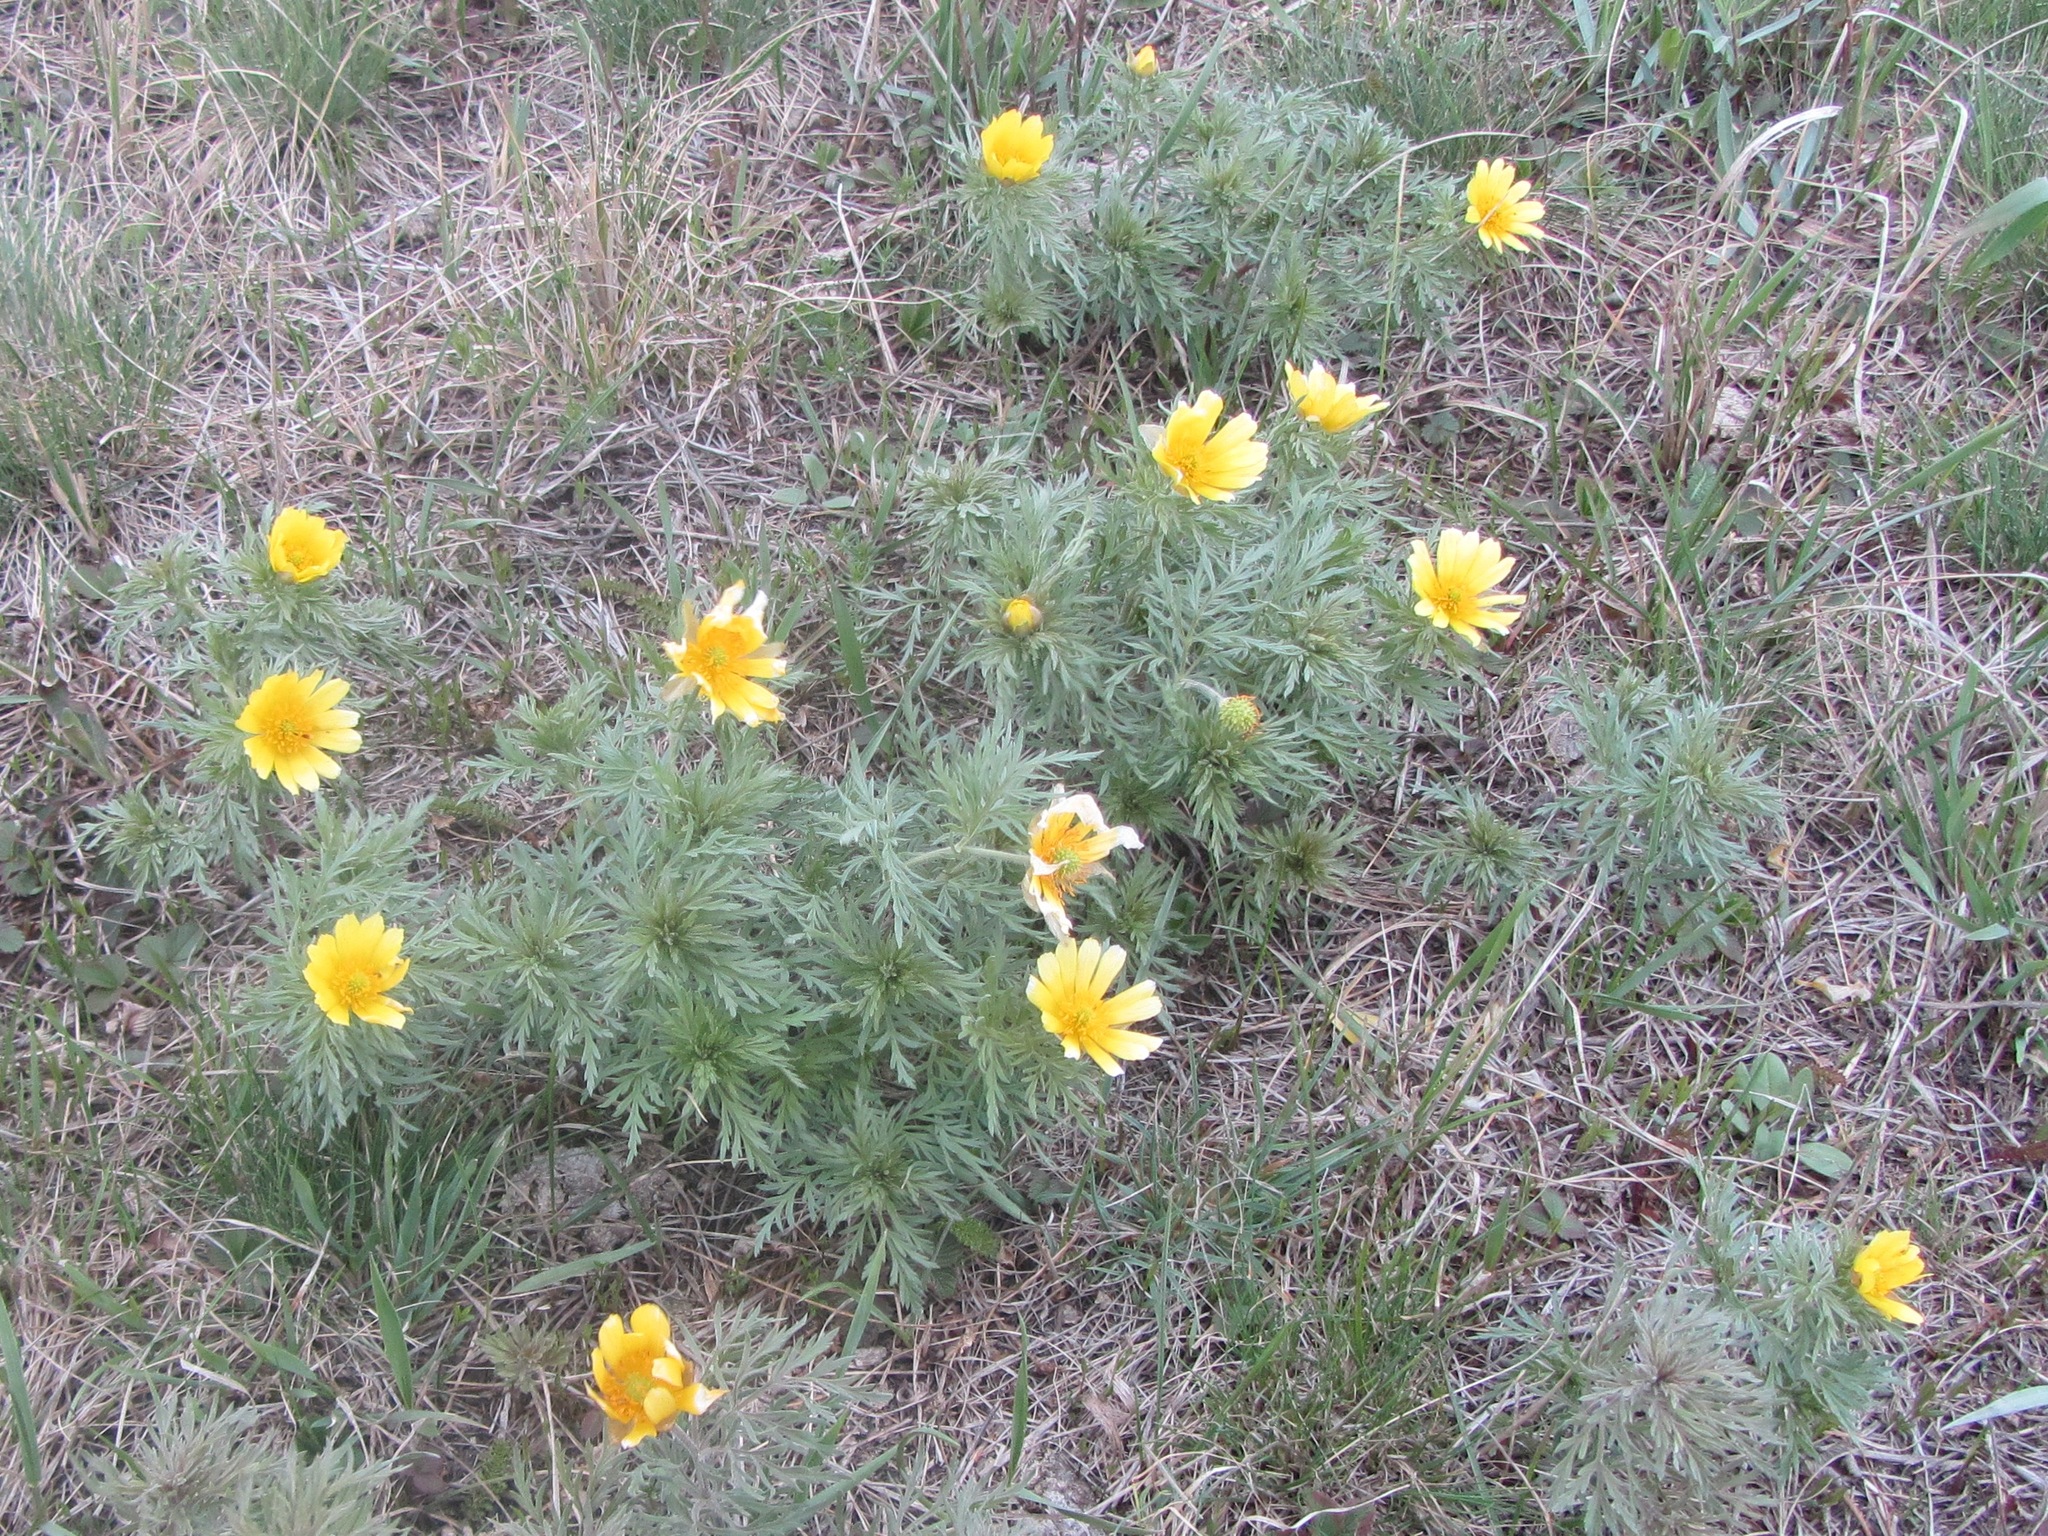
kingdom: Plantae
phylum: Tracheophyta
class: Magnoliopsida
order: Ranunculales
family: Ranunculaceae
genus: Adonis
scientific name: Adonis volgensis
